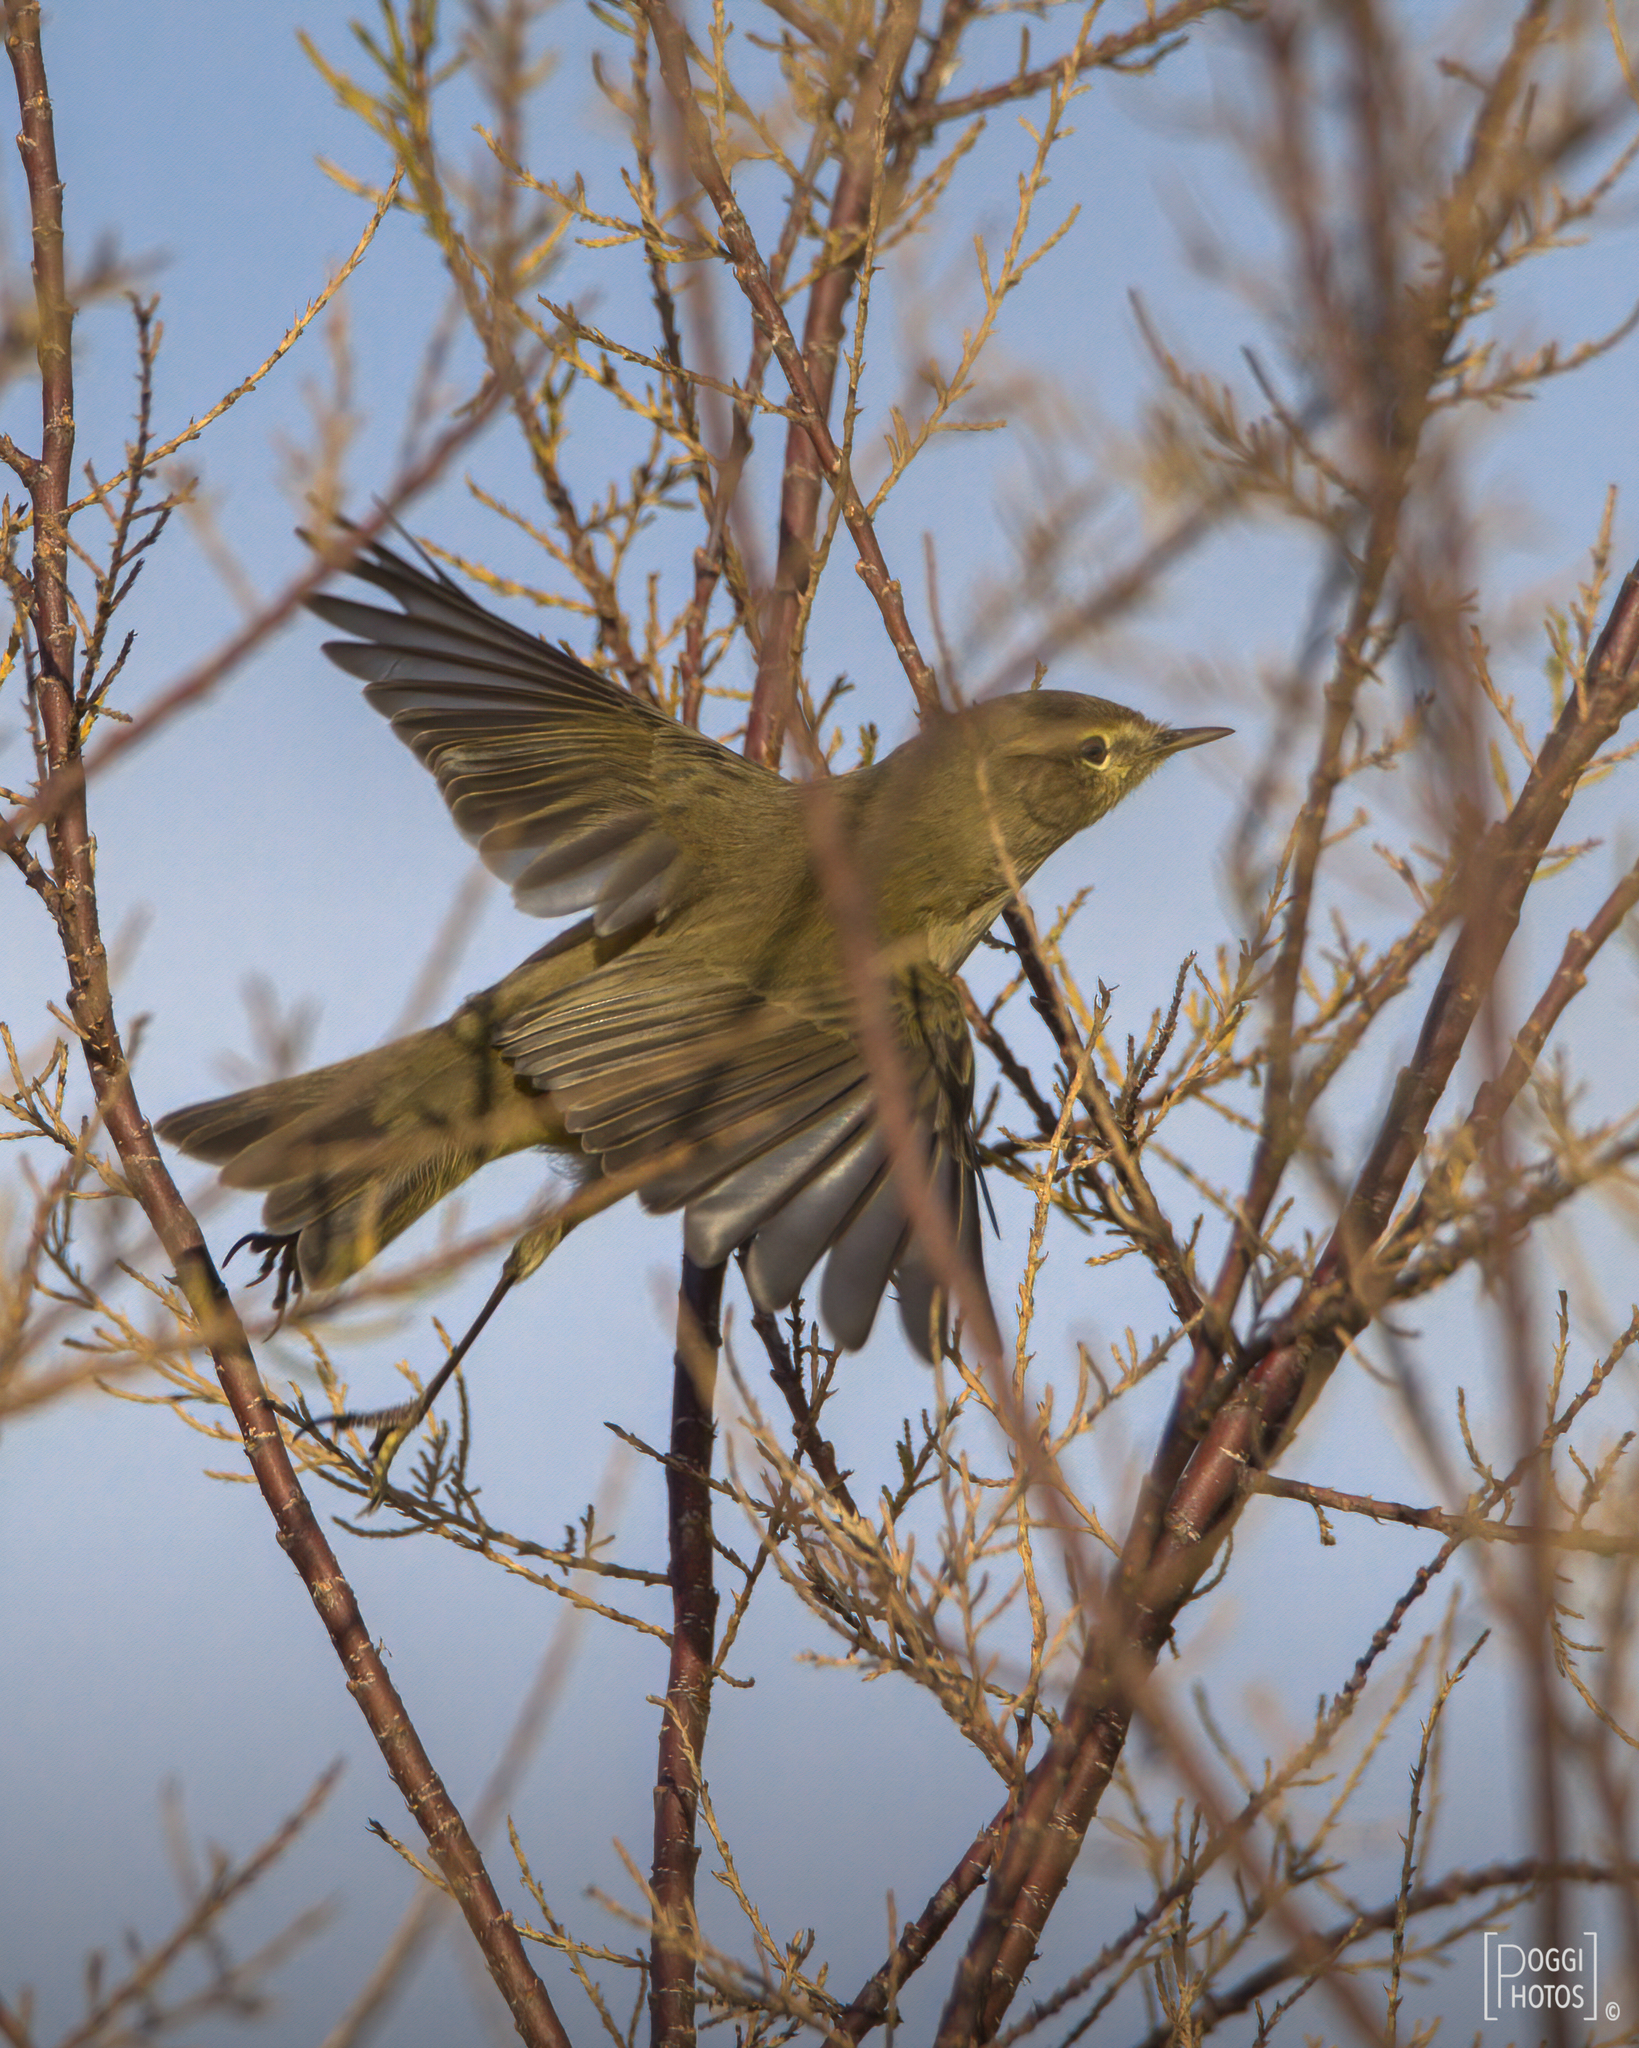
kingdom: Animalia
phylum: Chordata
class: Aves
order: Passeriformes
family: Phylloscopidae
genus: Phylloscopus
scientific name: Phylloscopus collybita
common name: Common chiffchaff
